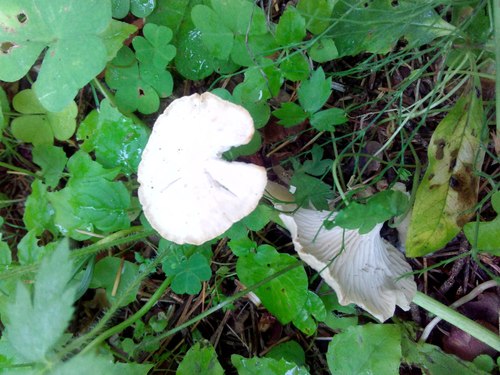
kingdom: Fungi
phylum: Basidiomycota
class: Agaricomycetes
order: Agaricales
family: Tricholomataceae
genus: Infundibulicybe
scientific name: Infundibulicybe gibba
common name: Common funnel
